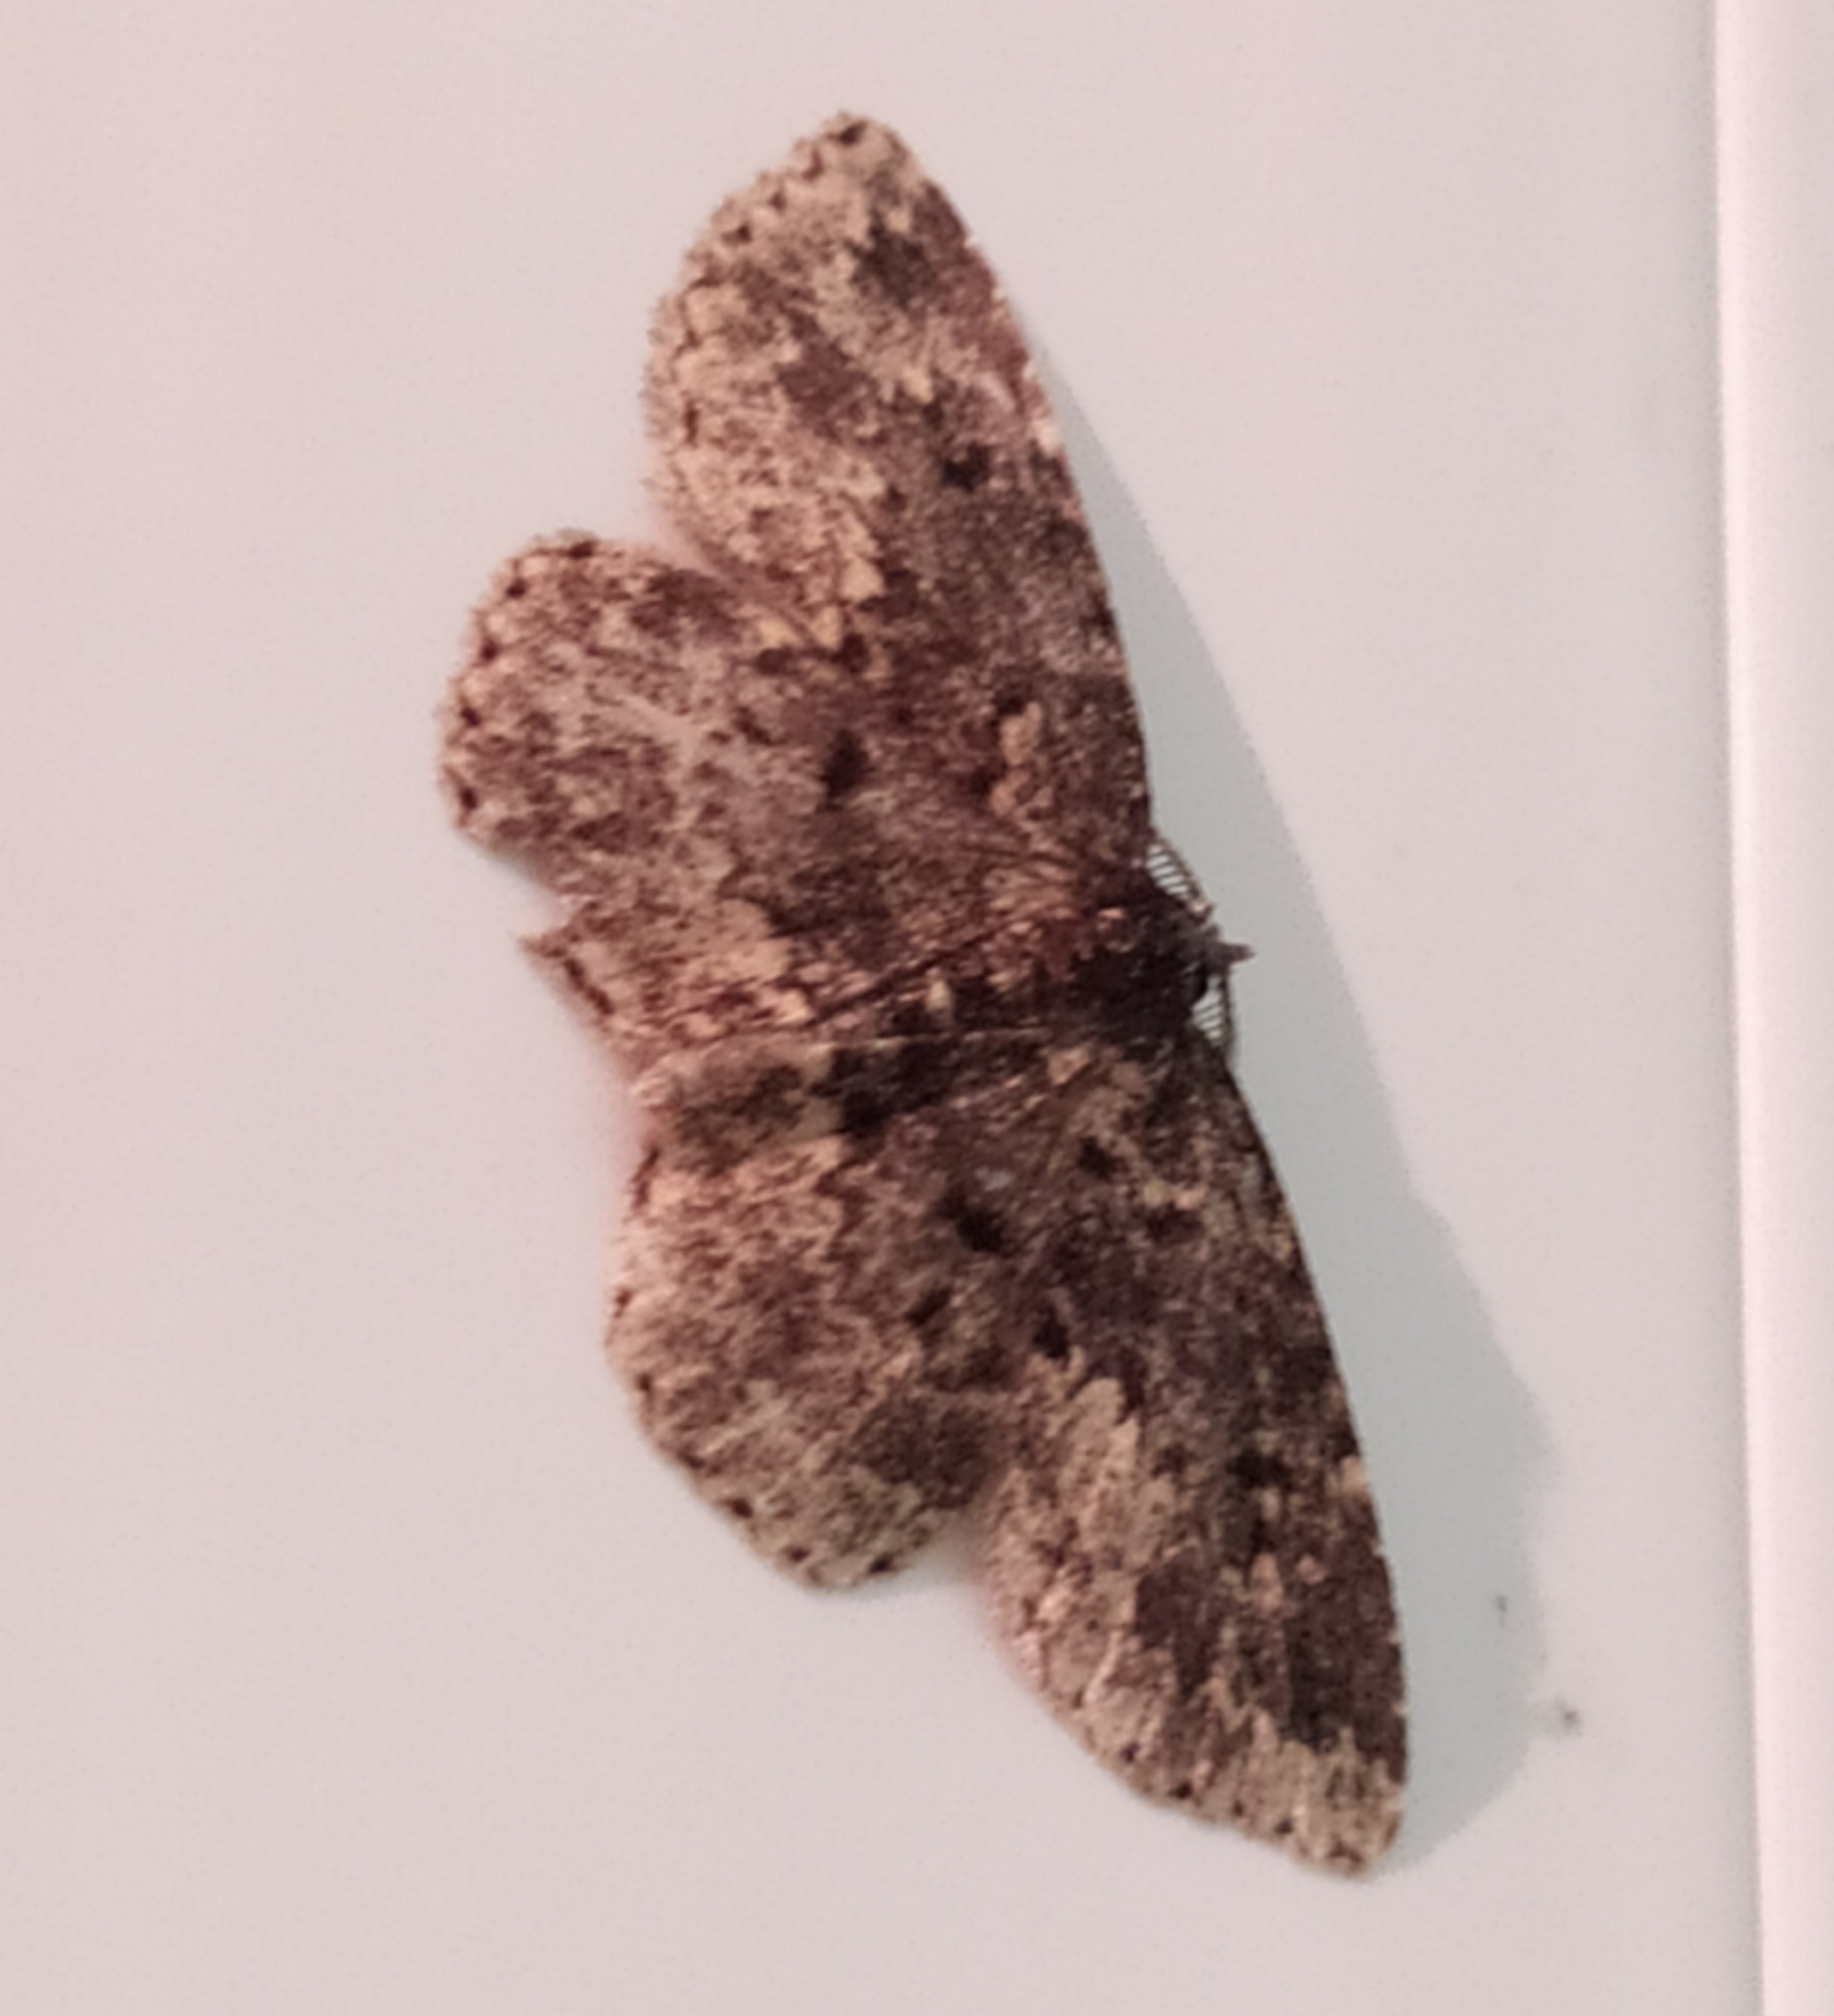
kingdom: Animalia
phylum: Arthropoda
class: Insecta
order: Lepidoptera
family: Erebidae
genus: Parascotia
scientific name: Parascotia fuliginaria
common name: Waved black
